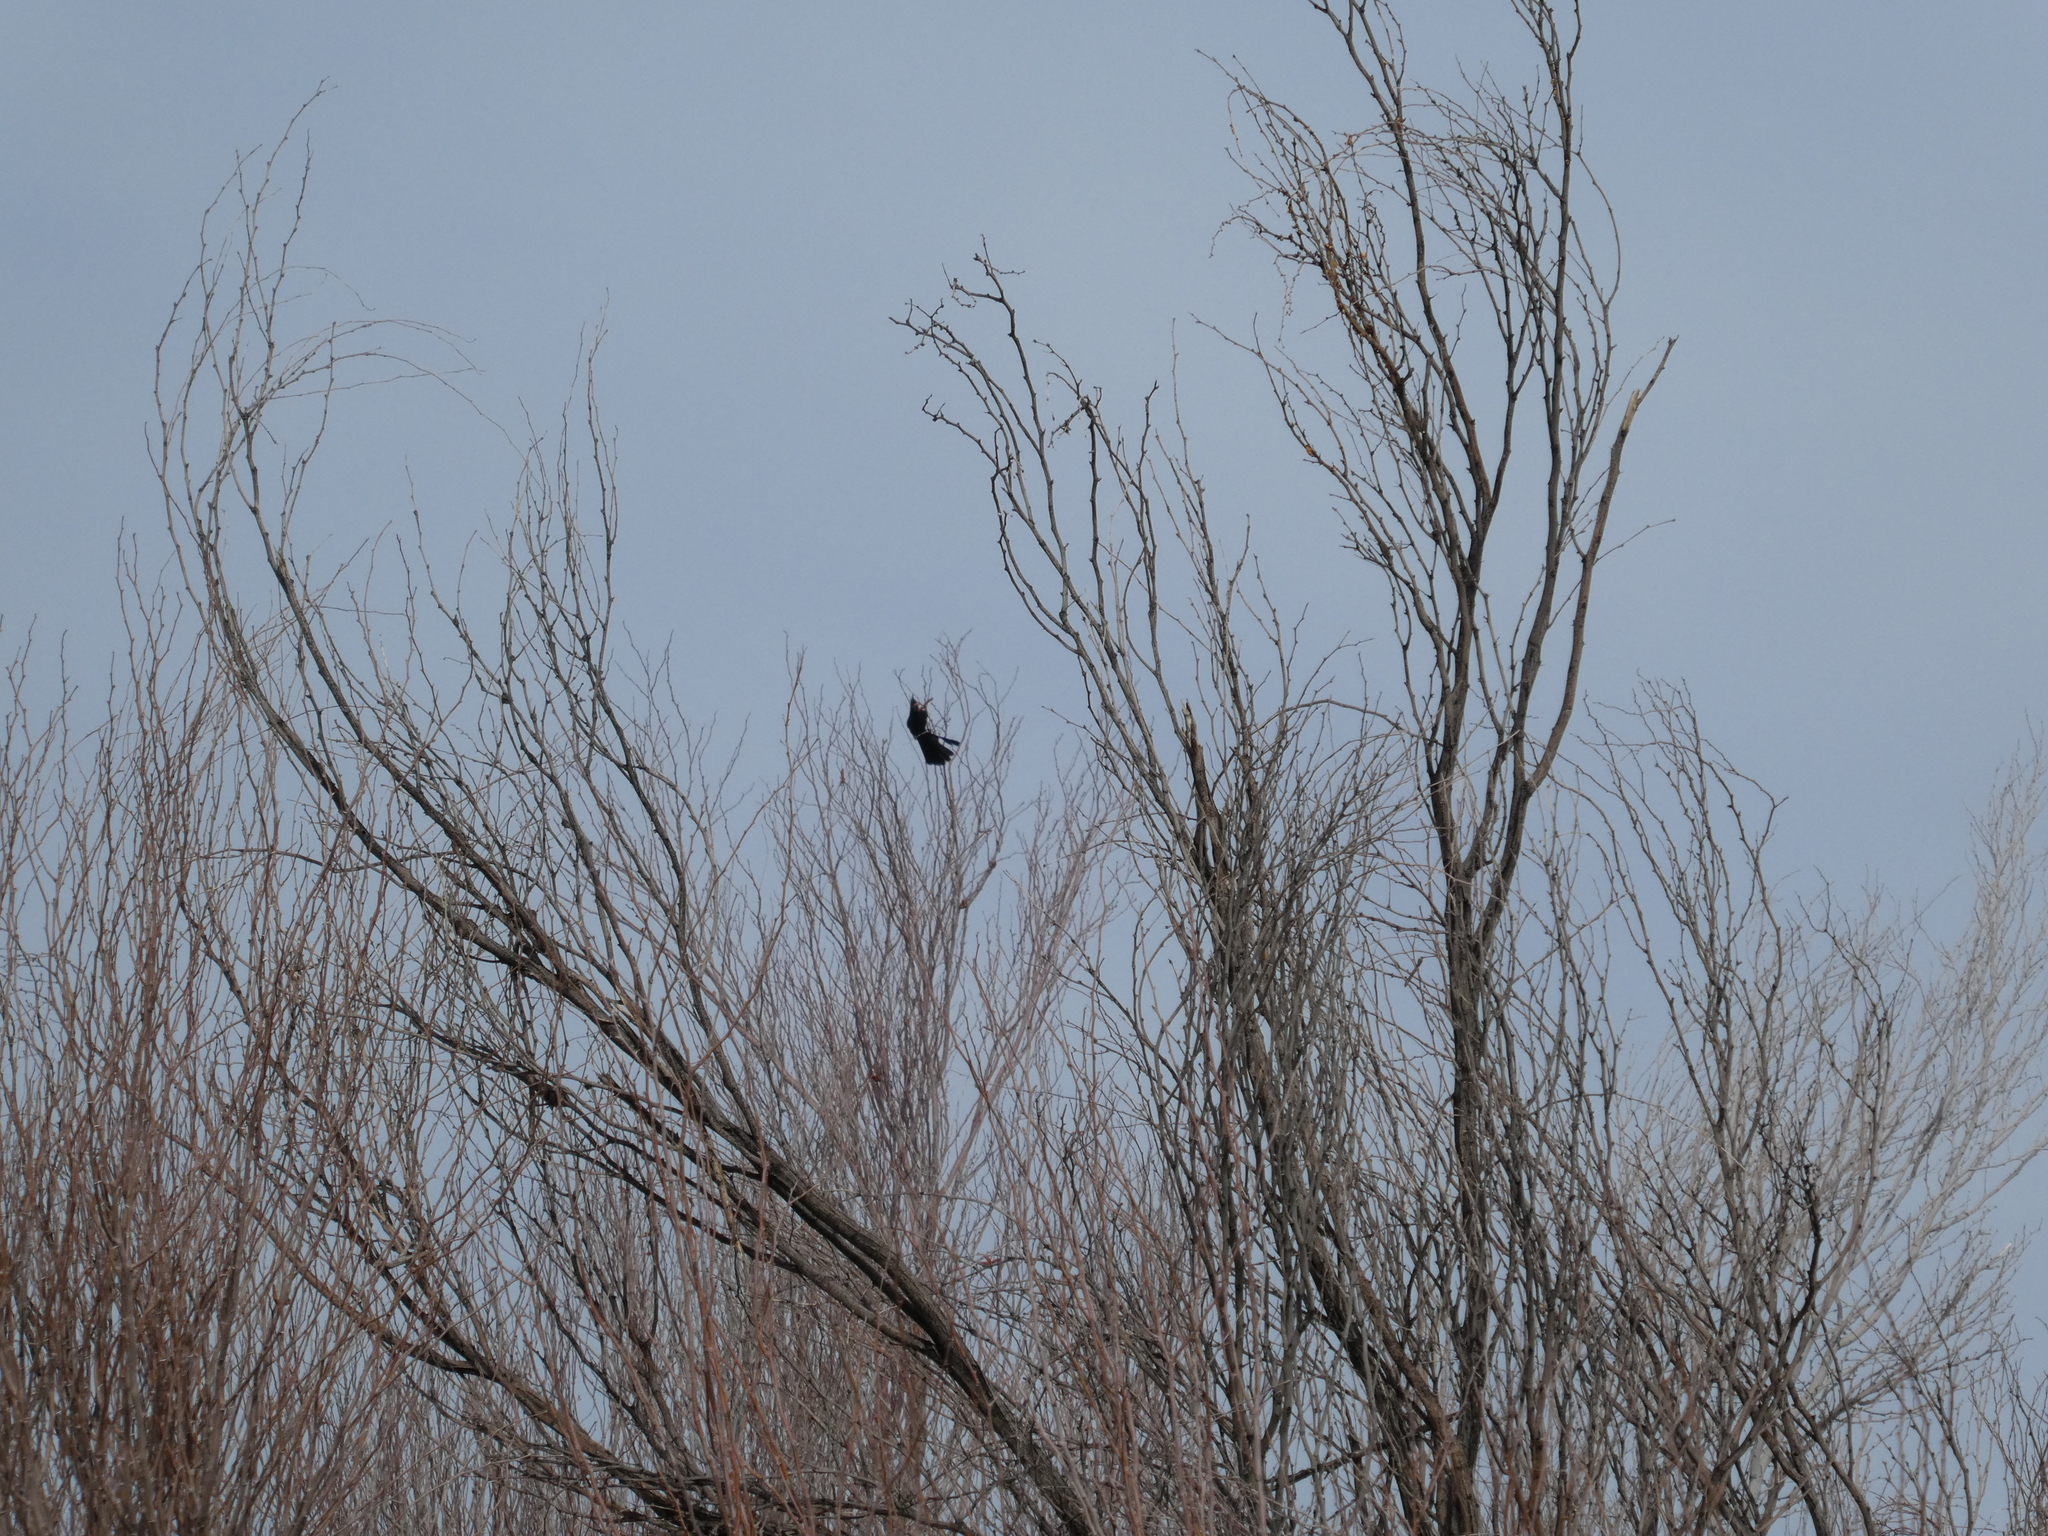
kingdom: Animalia
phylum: Chordata
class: Aves
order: Passeriformes
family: Ptilogonatidae
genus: Phainopepla
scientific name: Phainopepla nitens
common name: Phainopepla
